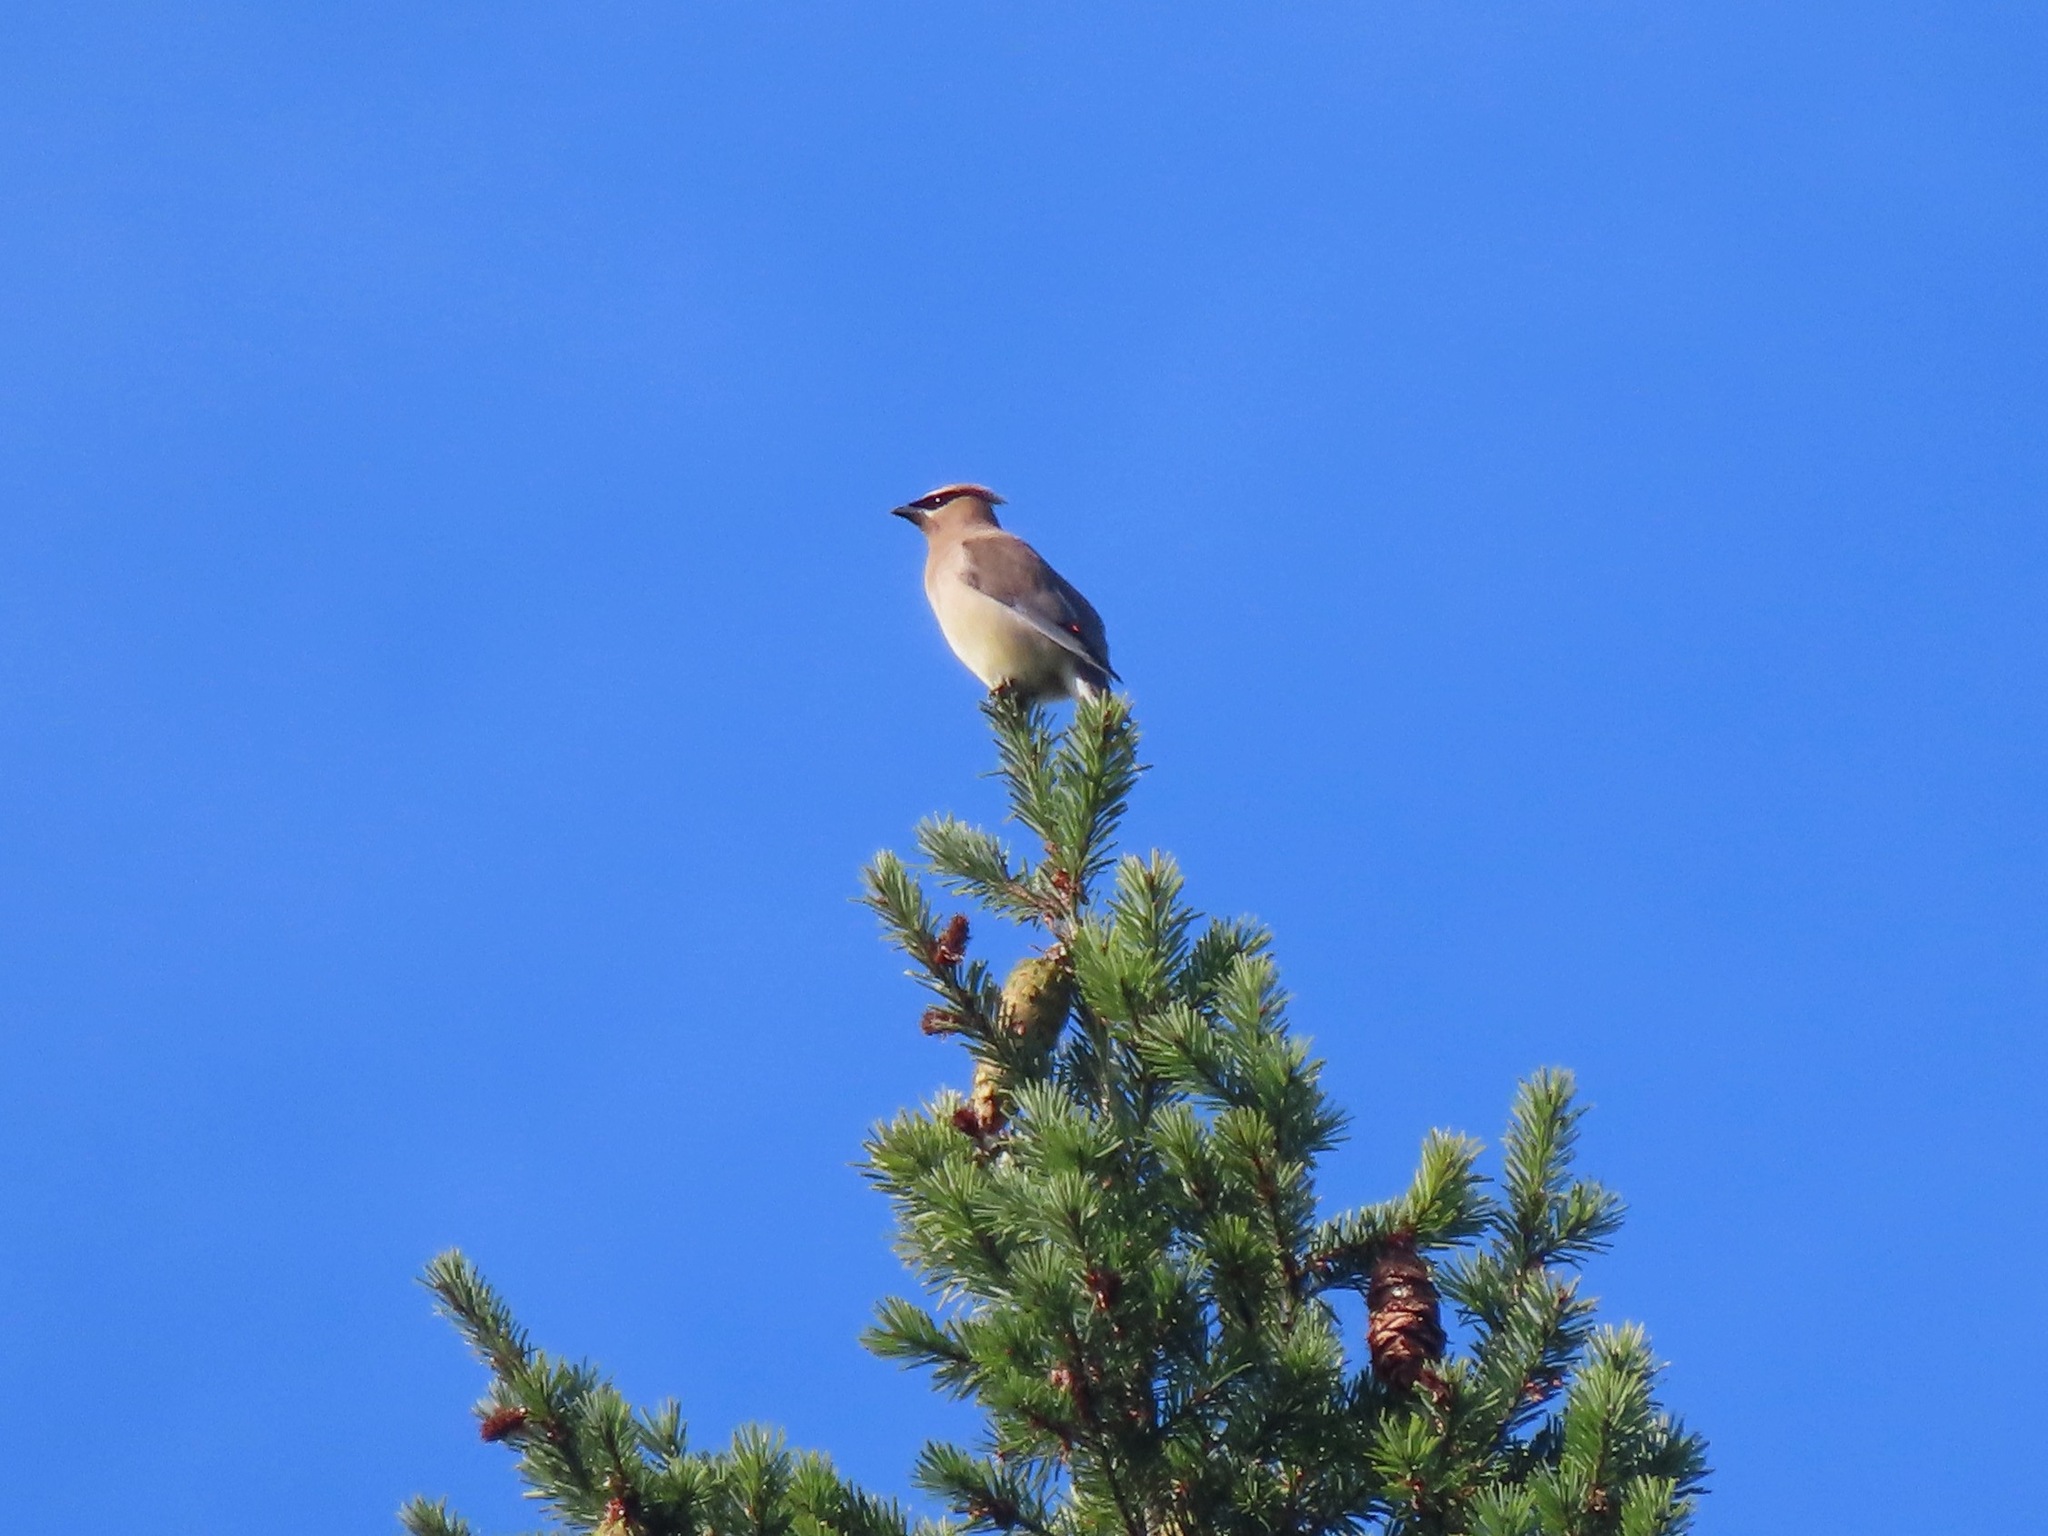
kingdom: Animalia
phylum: Chordata
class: Aves
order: Passeriformes
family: Bombycillidae
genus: Bombycilla
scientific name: Bombycilla cedrorum
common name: Cedar waxwing
